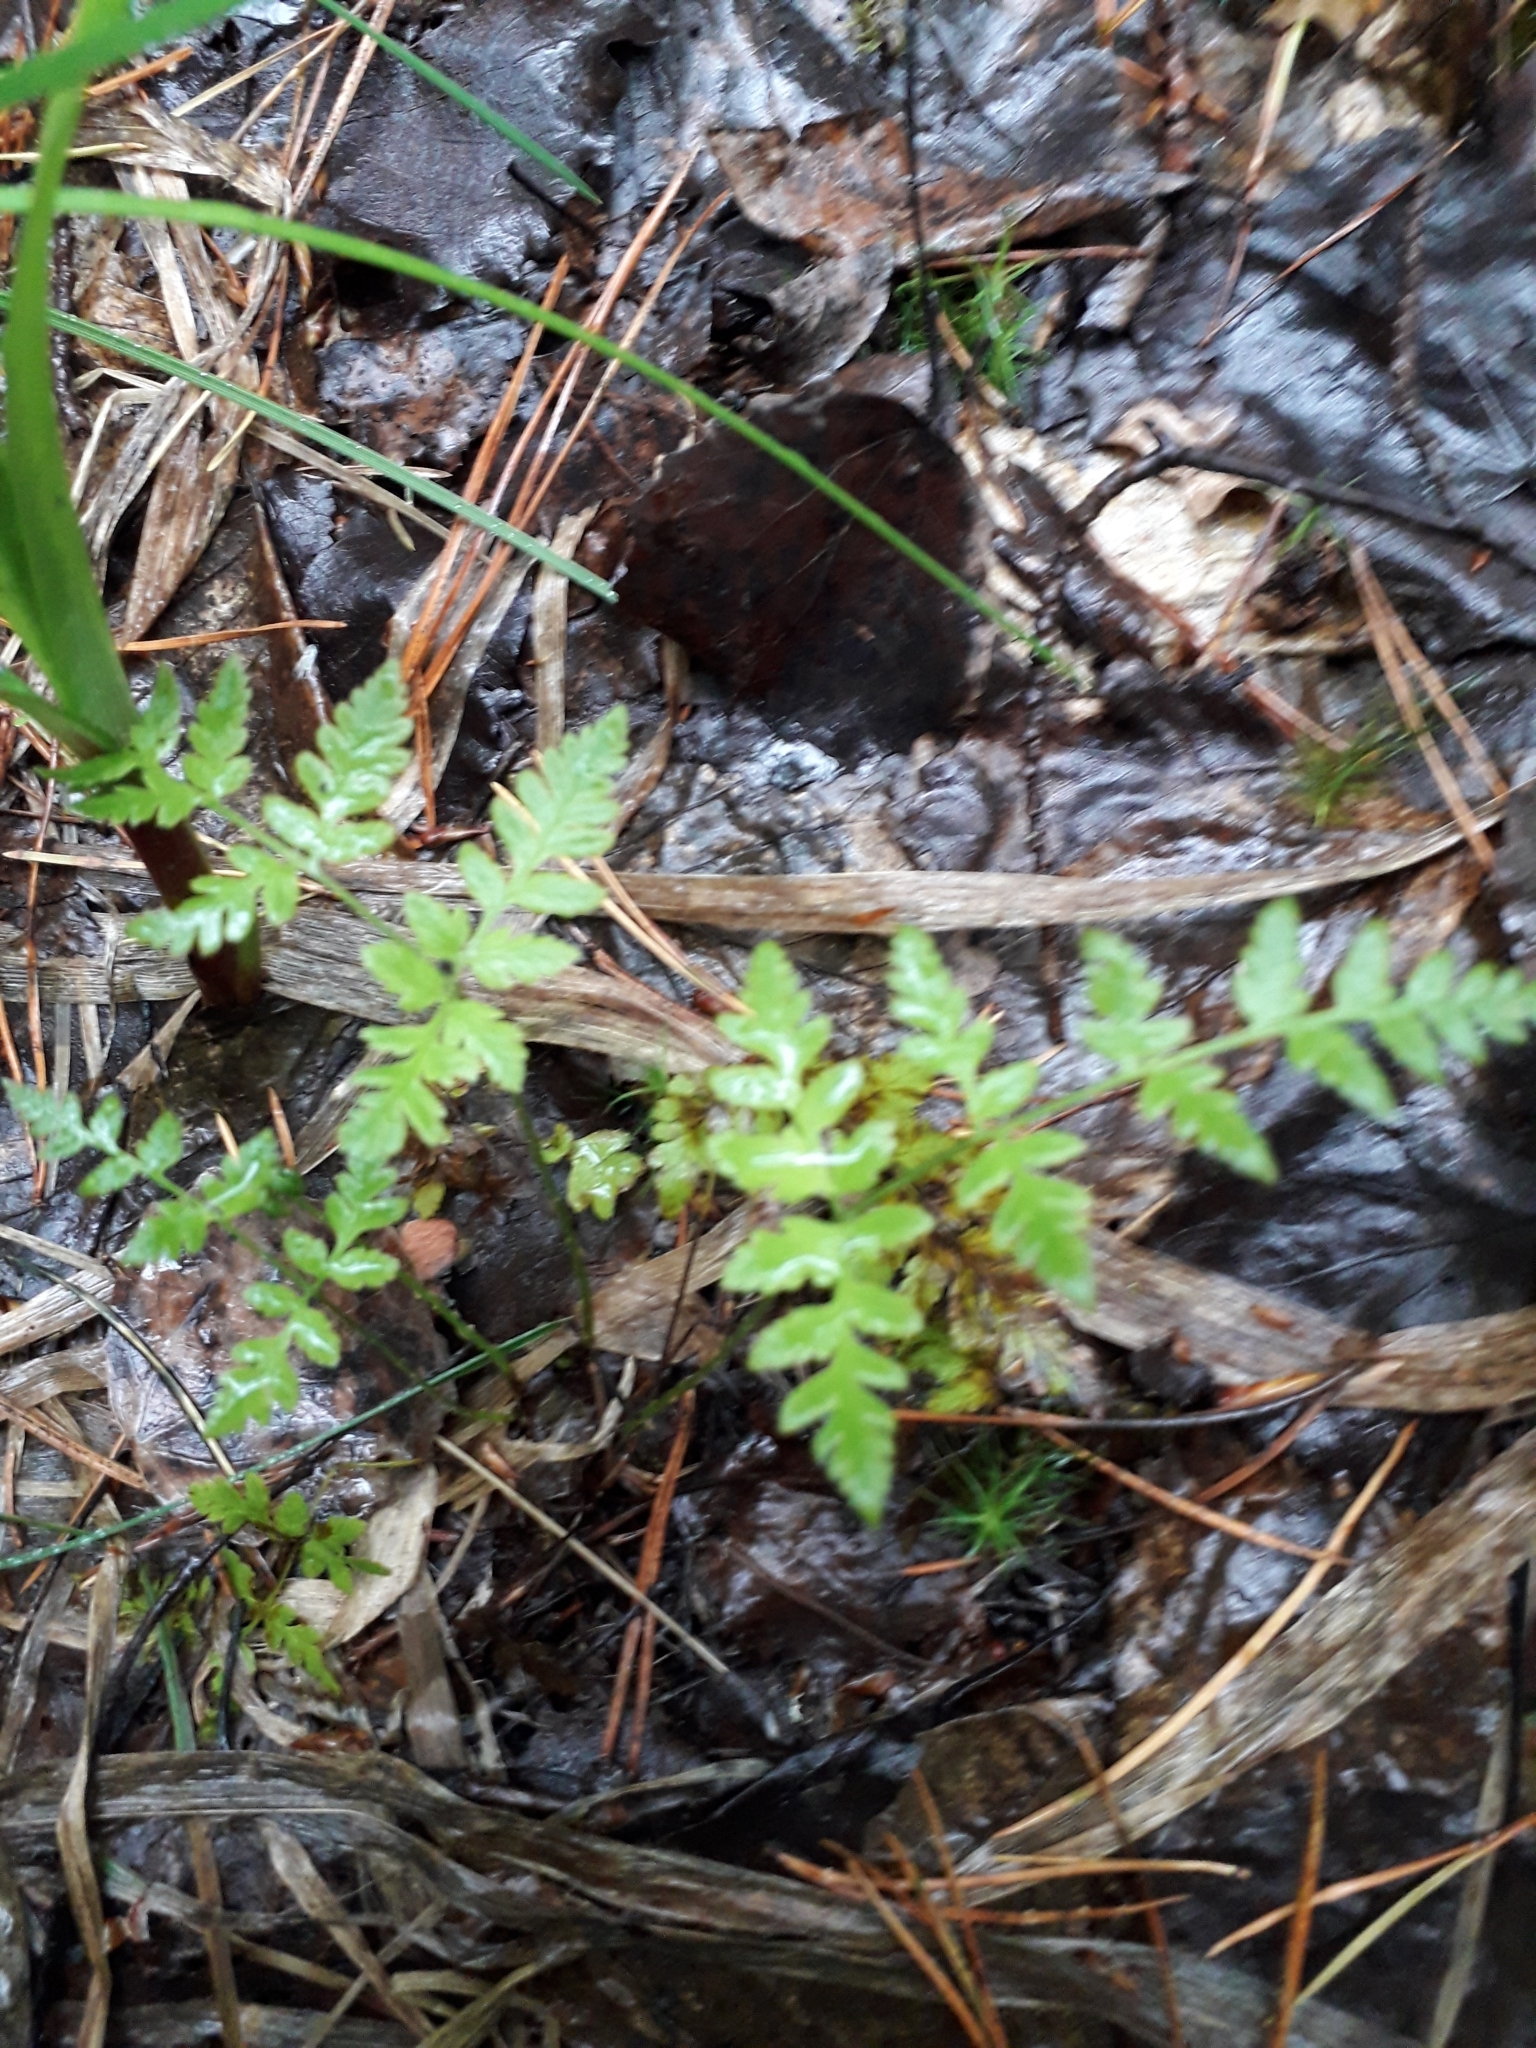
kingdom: Plantae
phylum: Tracheophyta
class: Polypodiopsida
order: Polypodiales
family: Dryopteridaceae
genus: Dryopteris
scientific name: Dryopteris carthusiana
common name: Narrow buckler-fern
